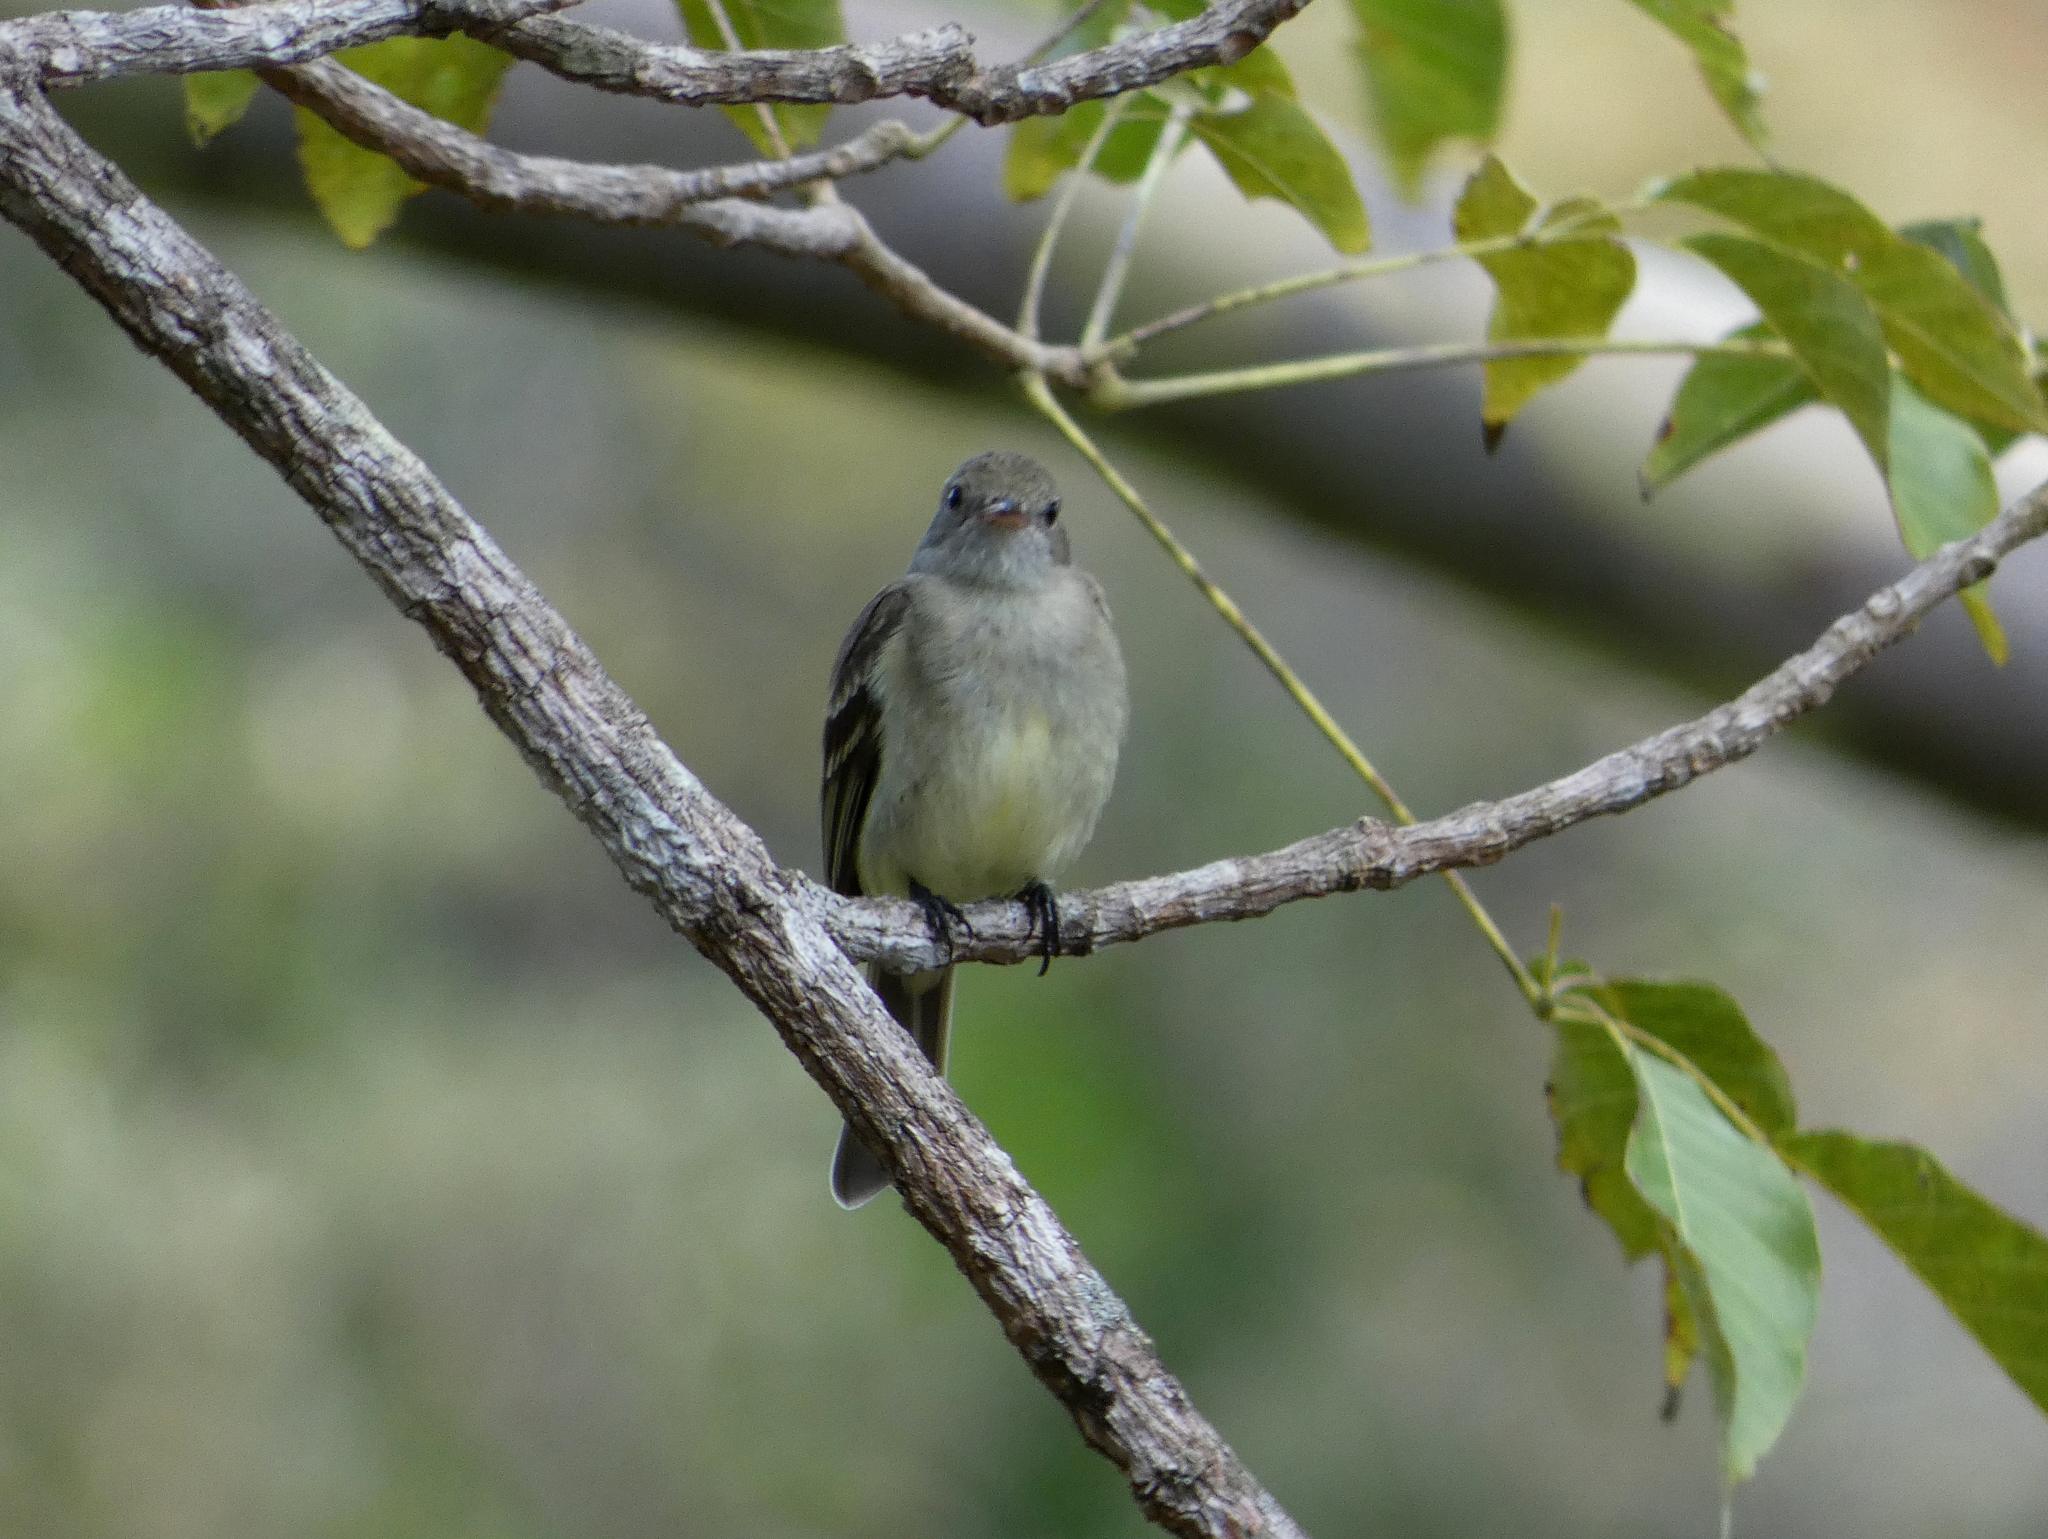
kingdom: Animalia
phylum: Chordata
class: Aves
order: Passeriformes
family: Tyrannidae
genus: Elaenia
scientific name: Elaenia chiriquensis
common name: Lesser elaenia
